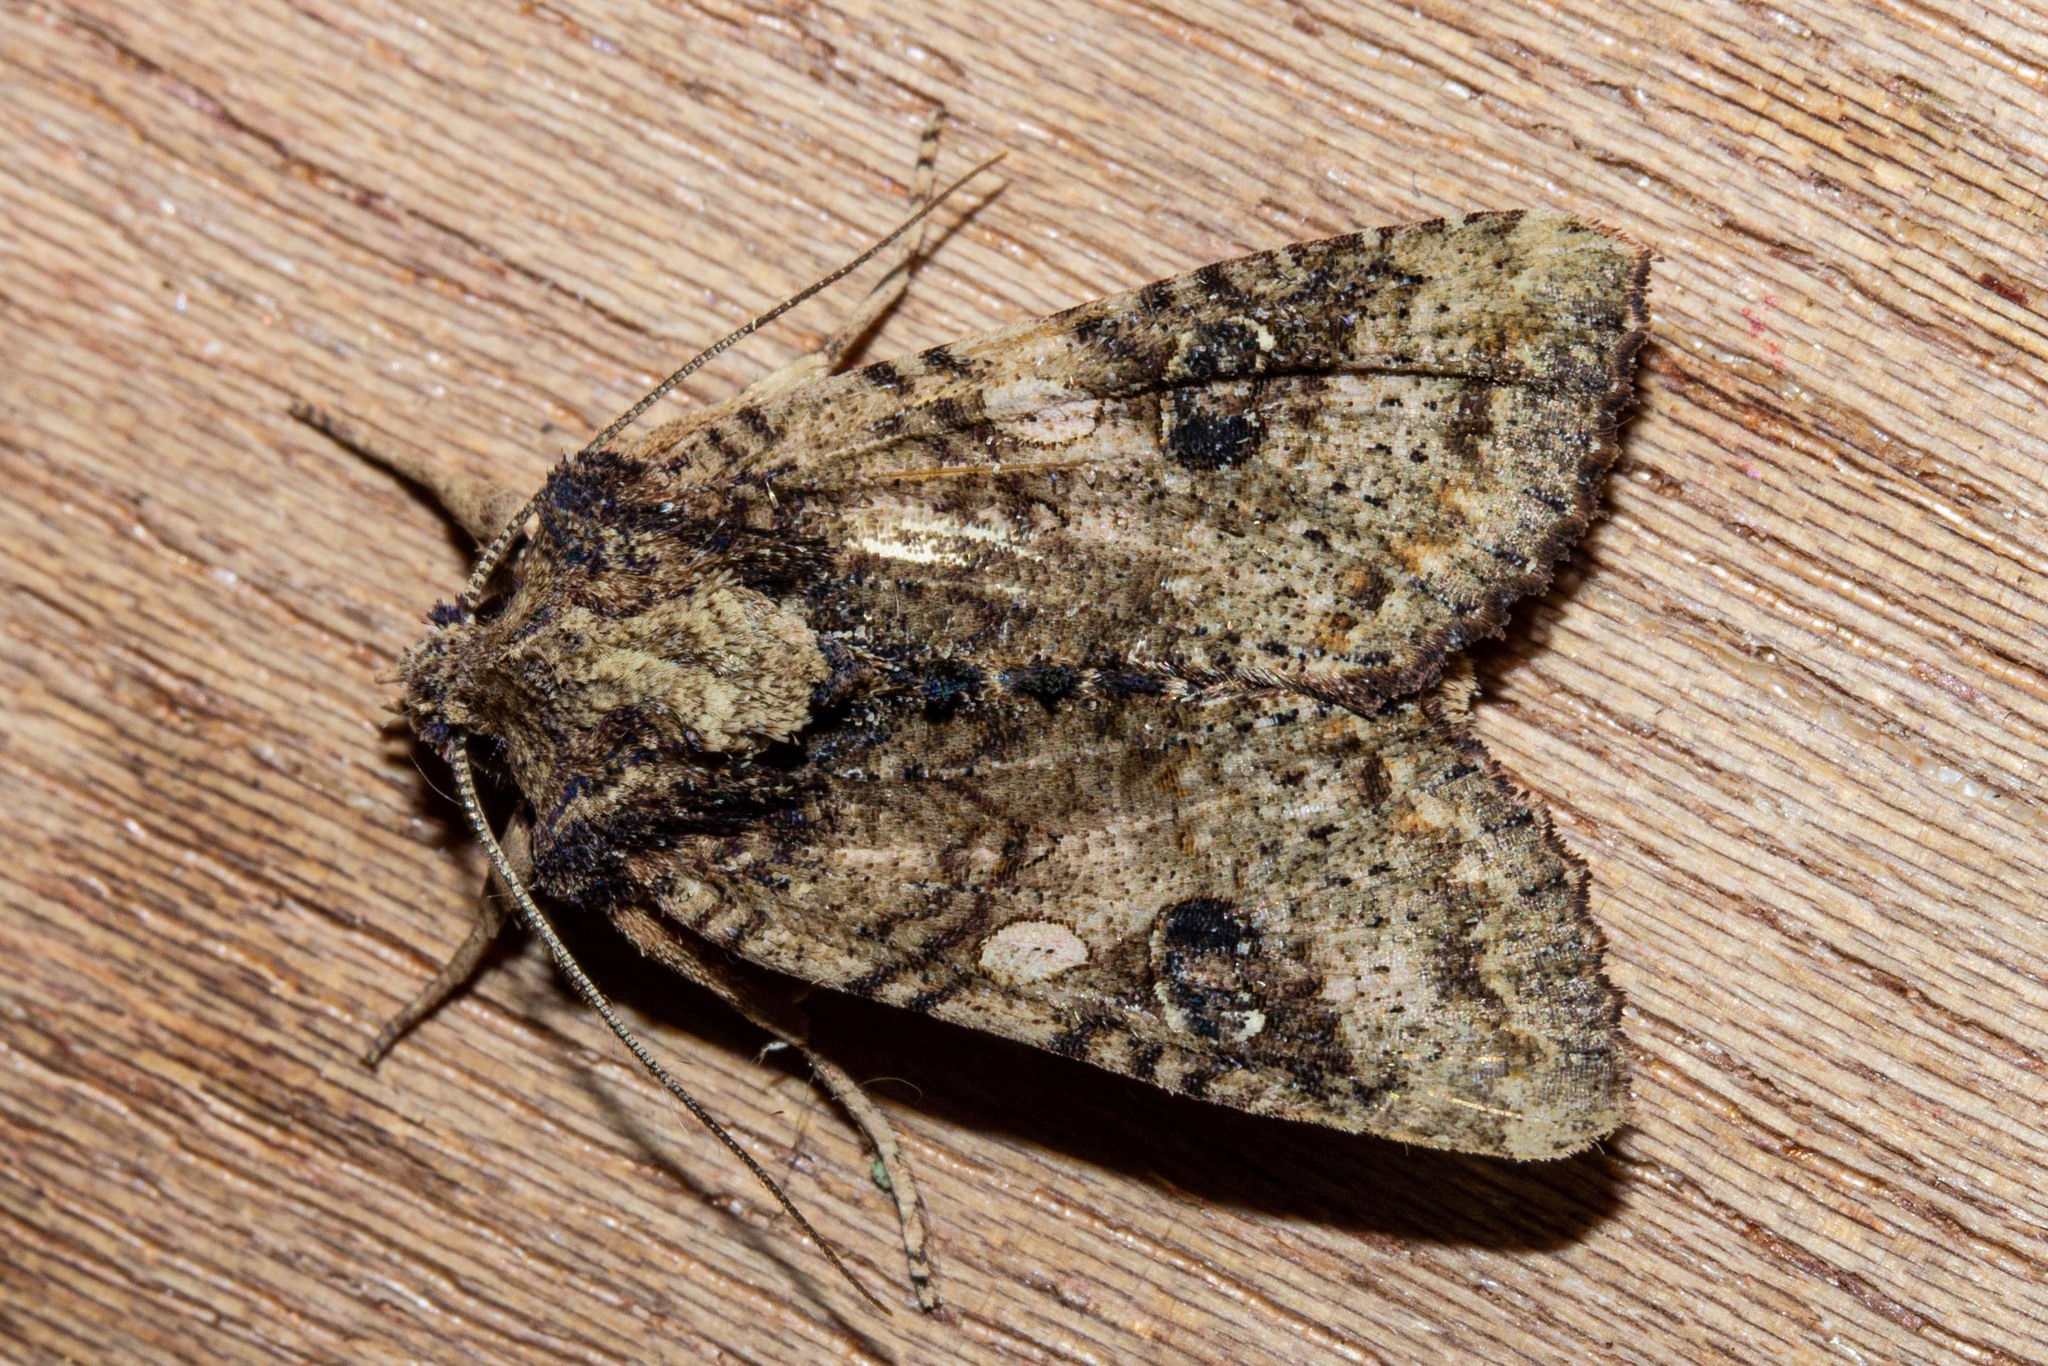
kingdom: Animalia
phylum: Arthropoda
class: Insecta
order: Lepidoptera
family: Noctuidae
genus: Meterana
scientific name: Meterana octans
